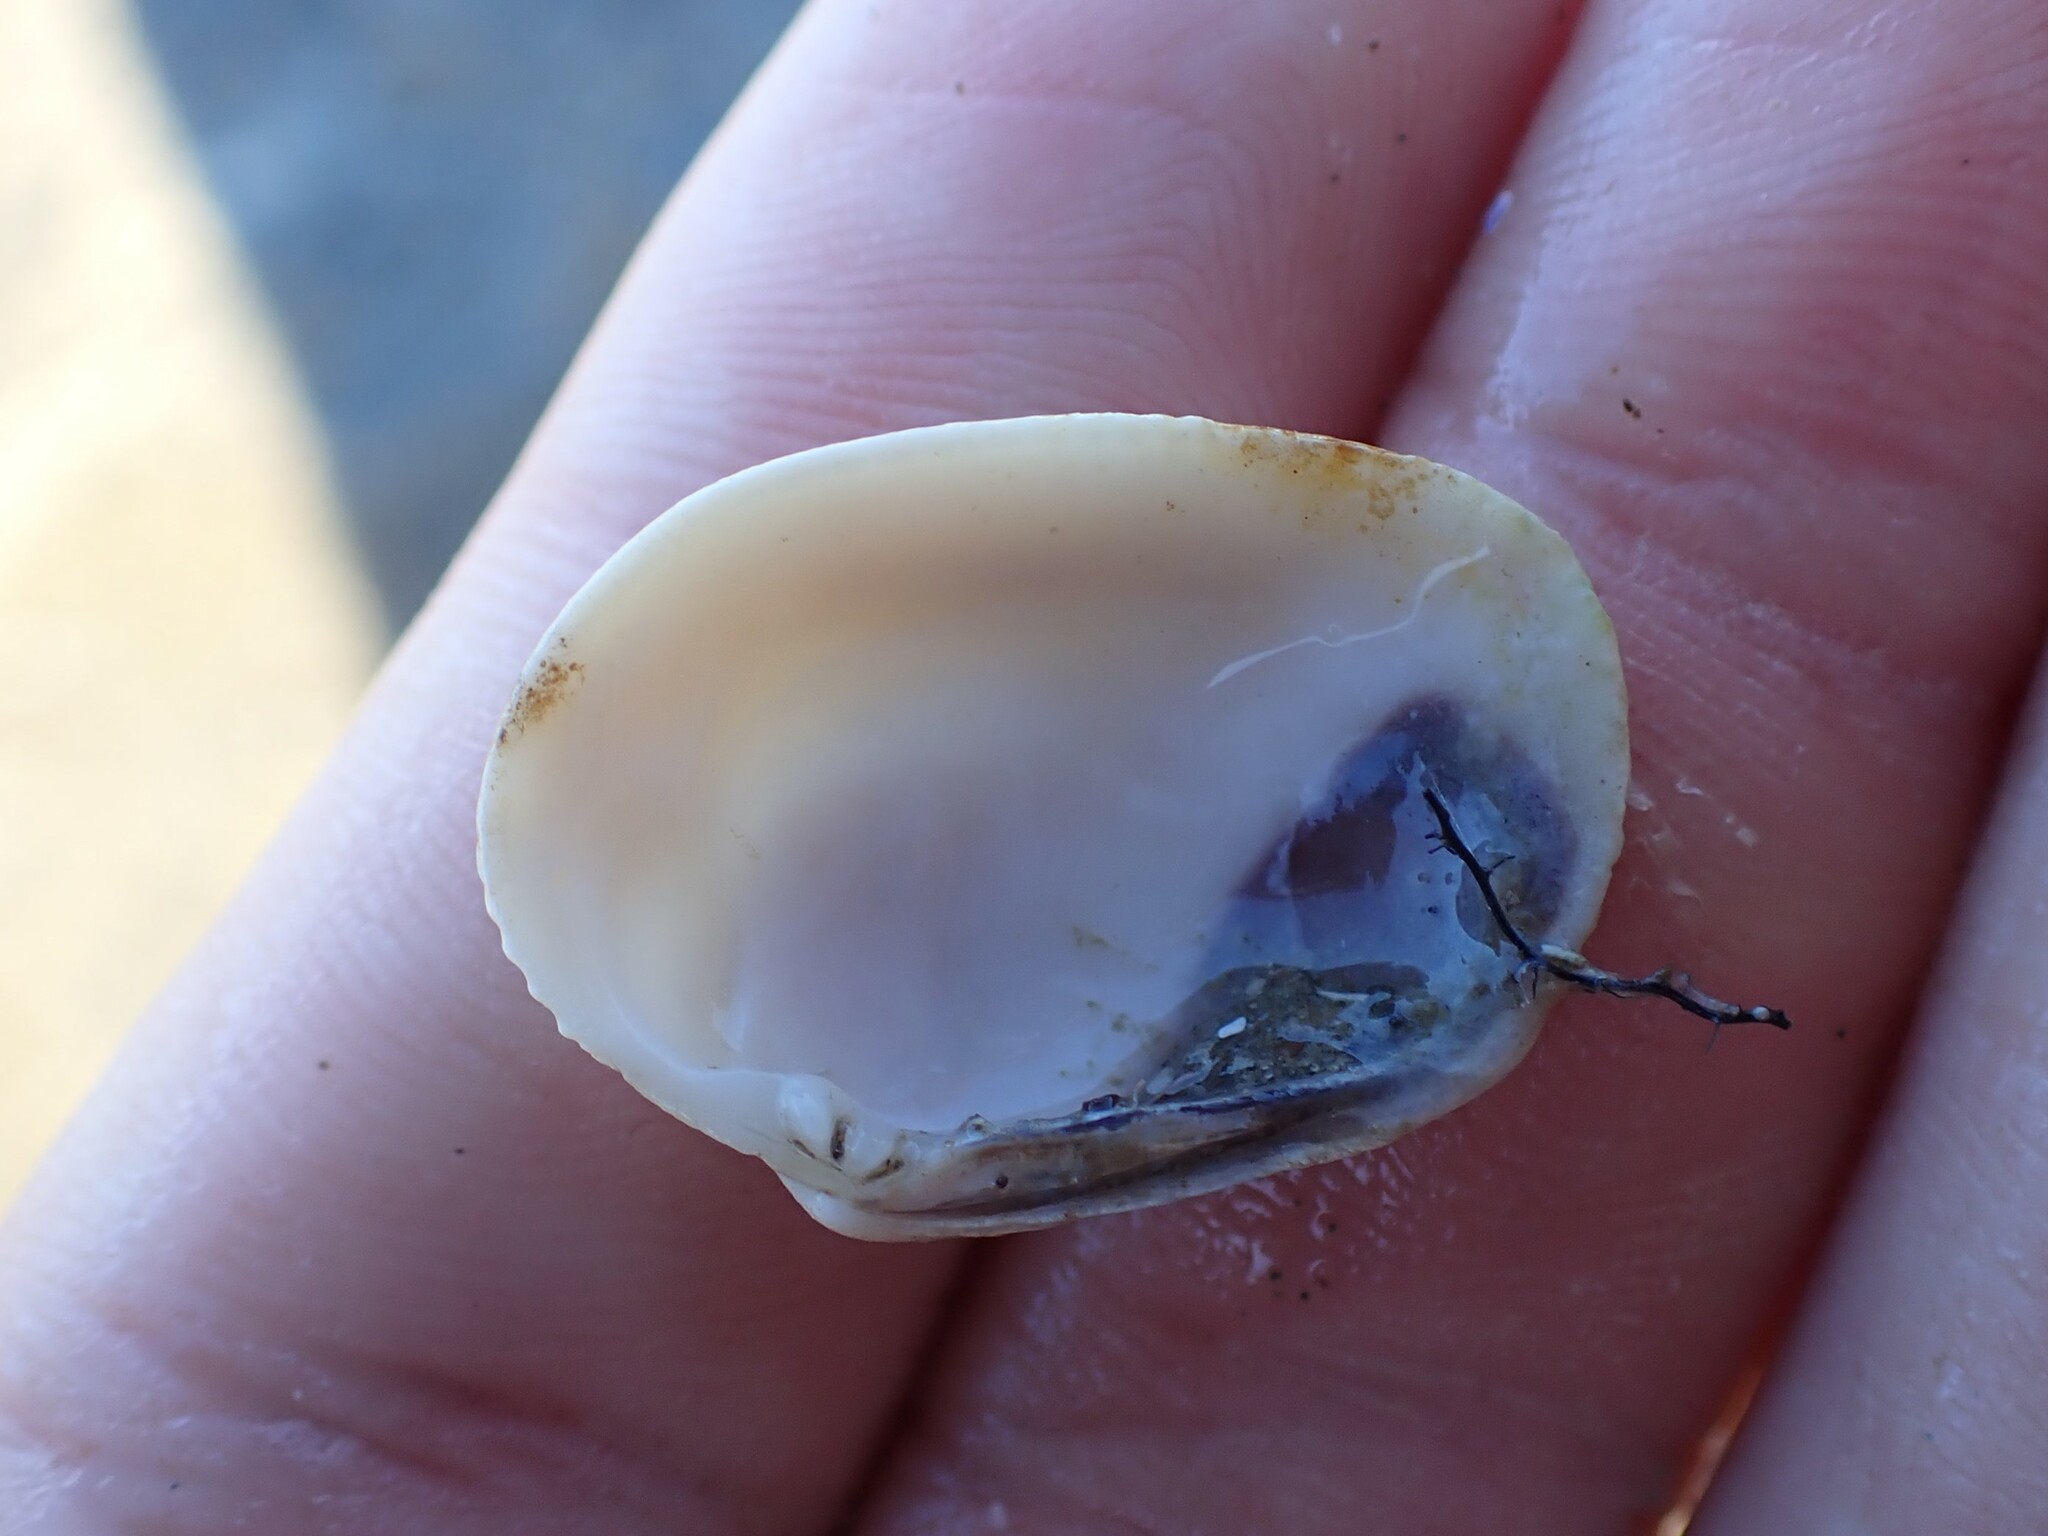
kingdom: Animalia
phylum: Mollusca
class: Bivalvia
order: Venerida
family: Veneridae
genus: Leukoma
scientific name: Leukoma crassicosta
